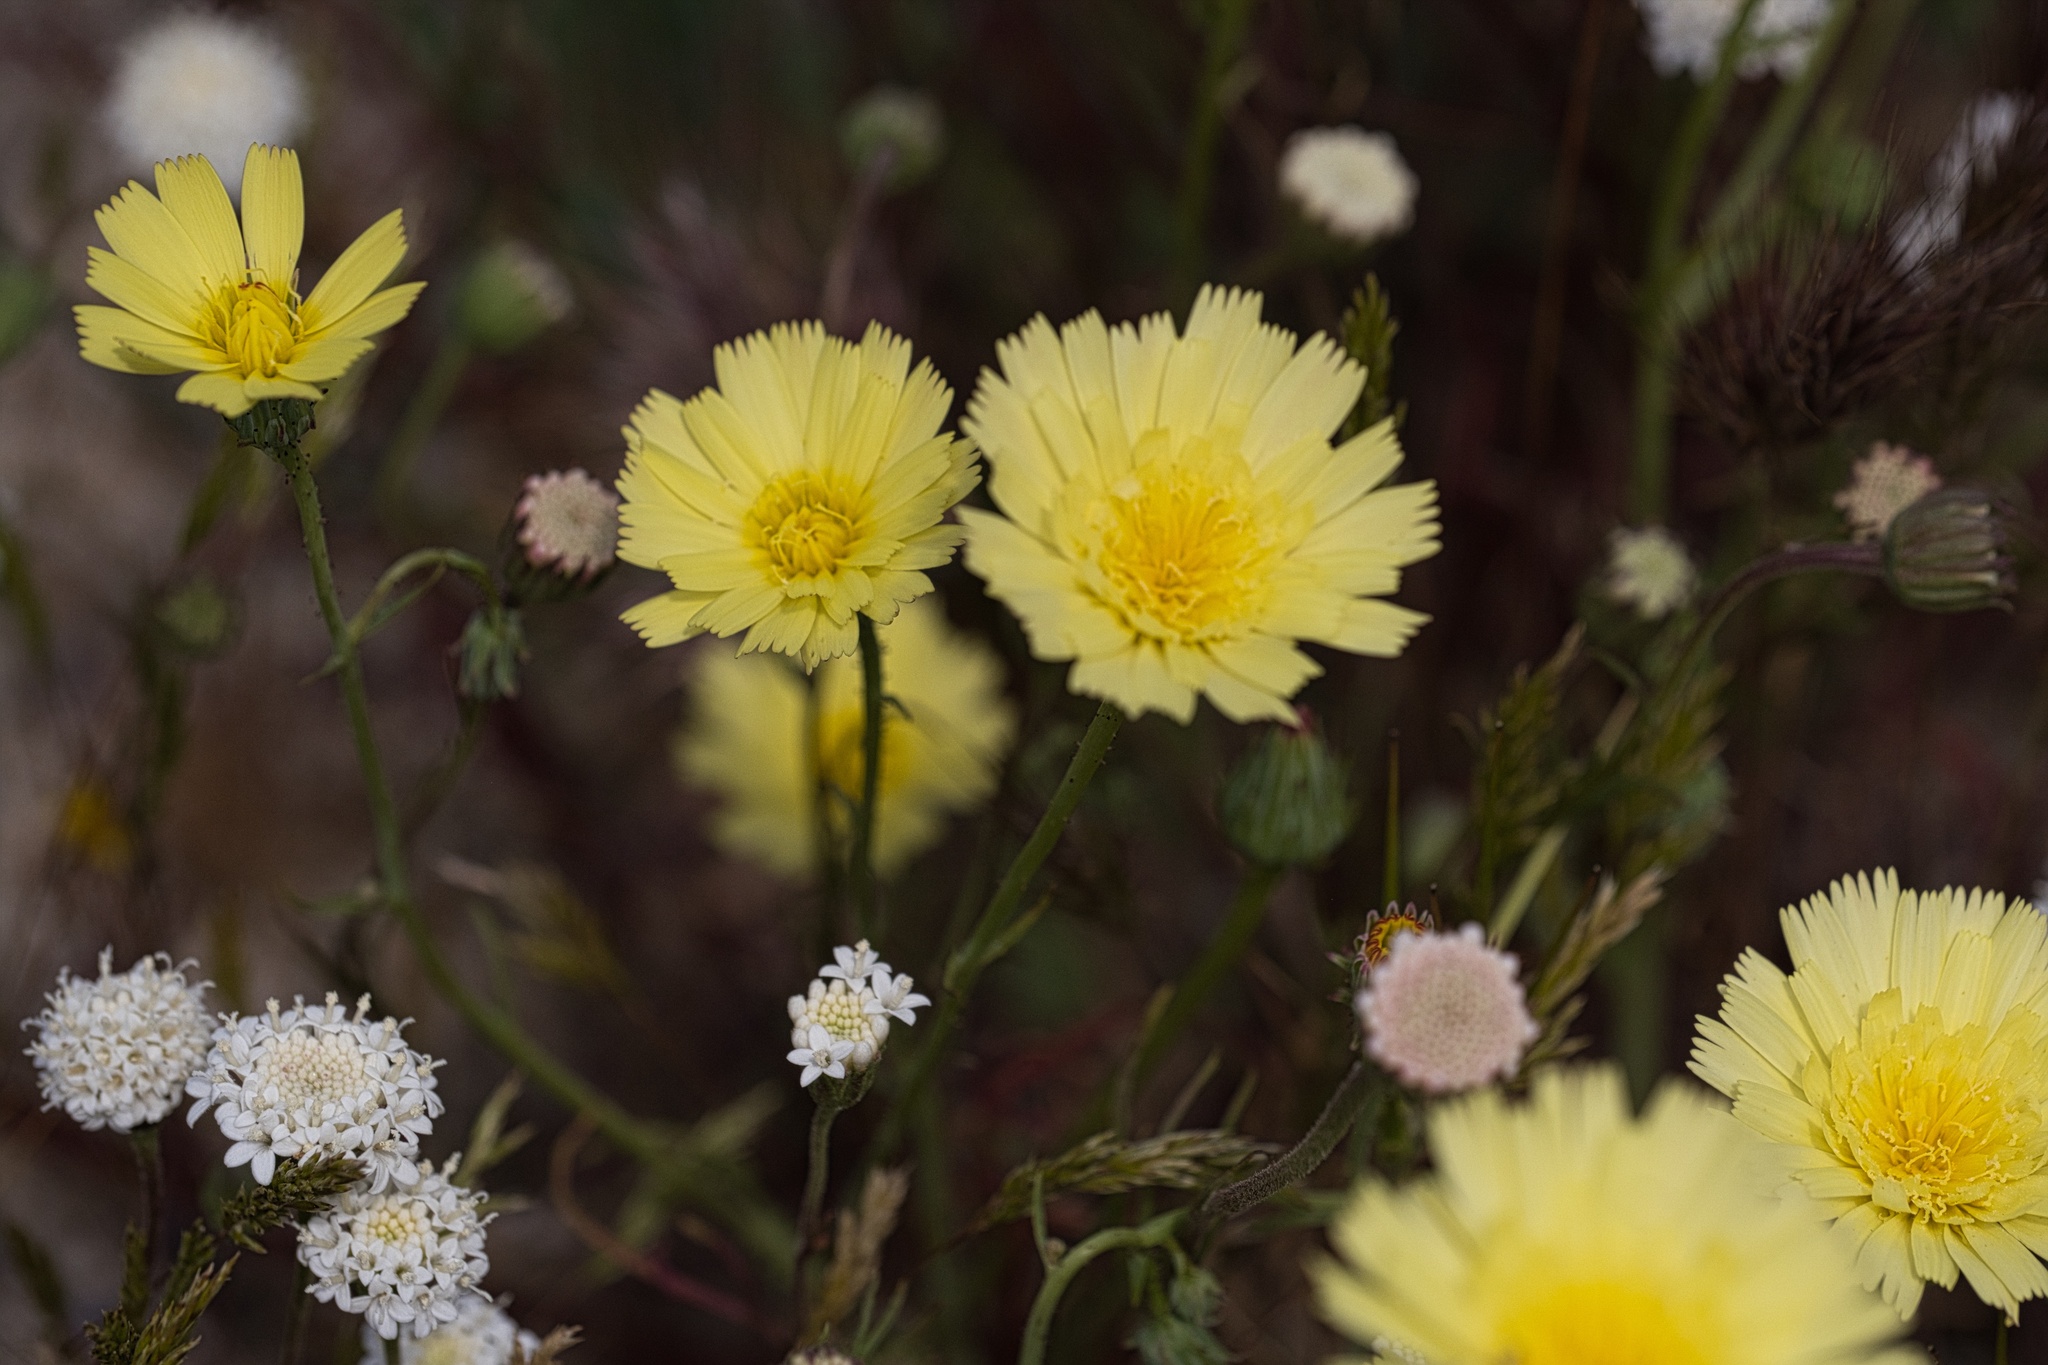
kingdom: Plantae
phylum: Tracheophyta
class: Magnoliopsida
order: Asterales
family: Asteraceae
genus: Calycoseris
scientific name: Calycoseris parryi
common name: Yellow tackstem
